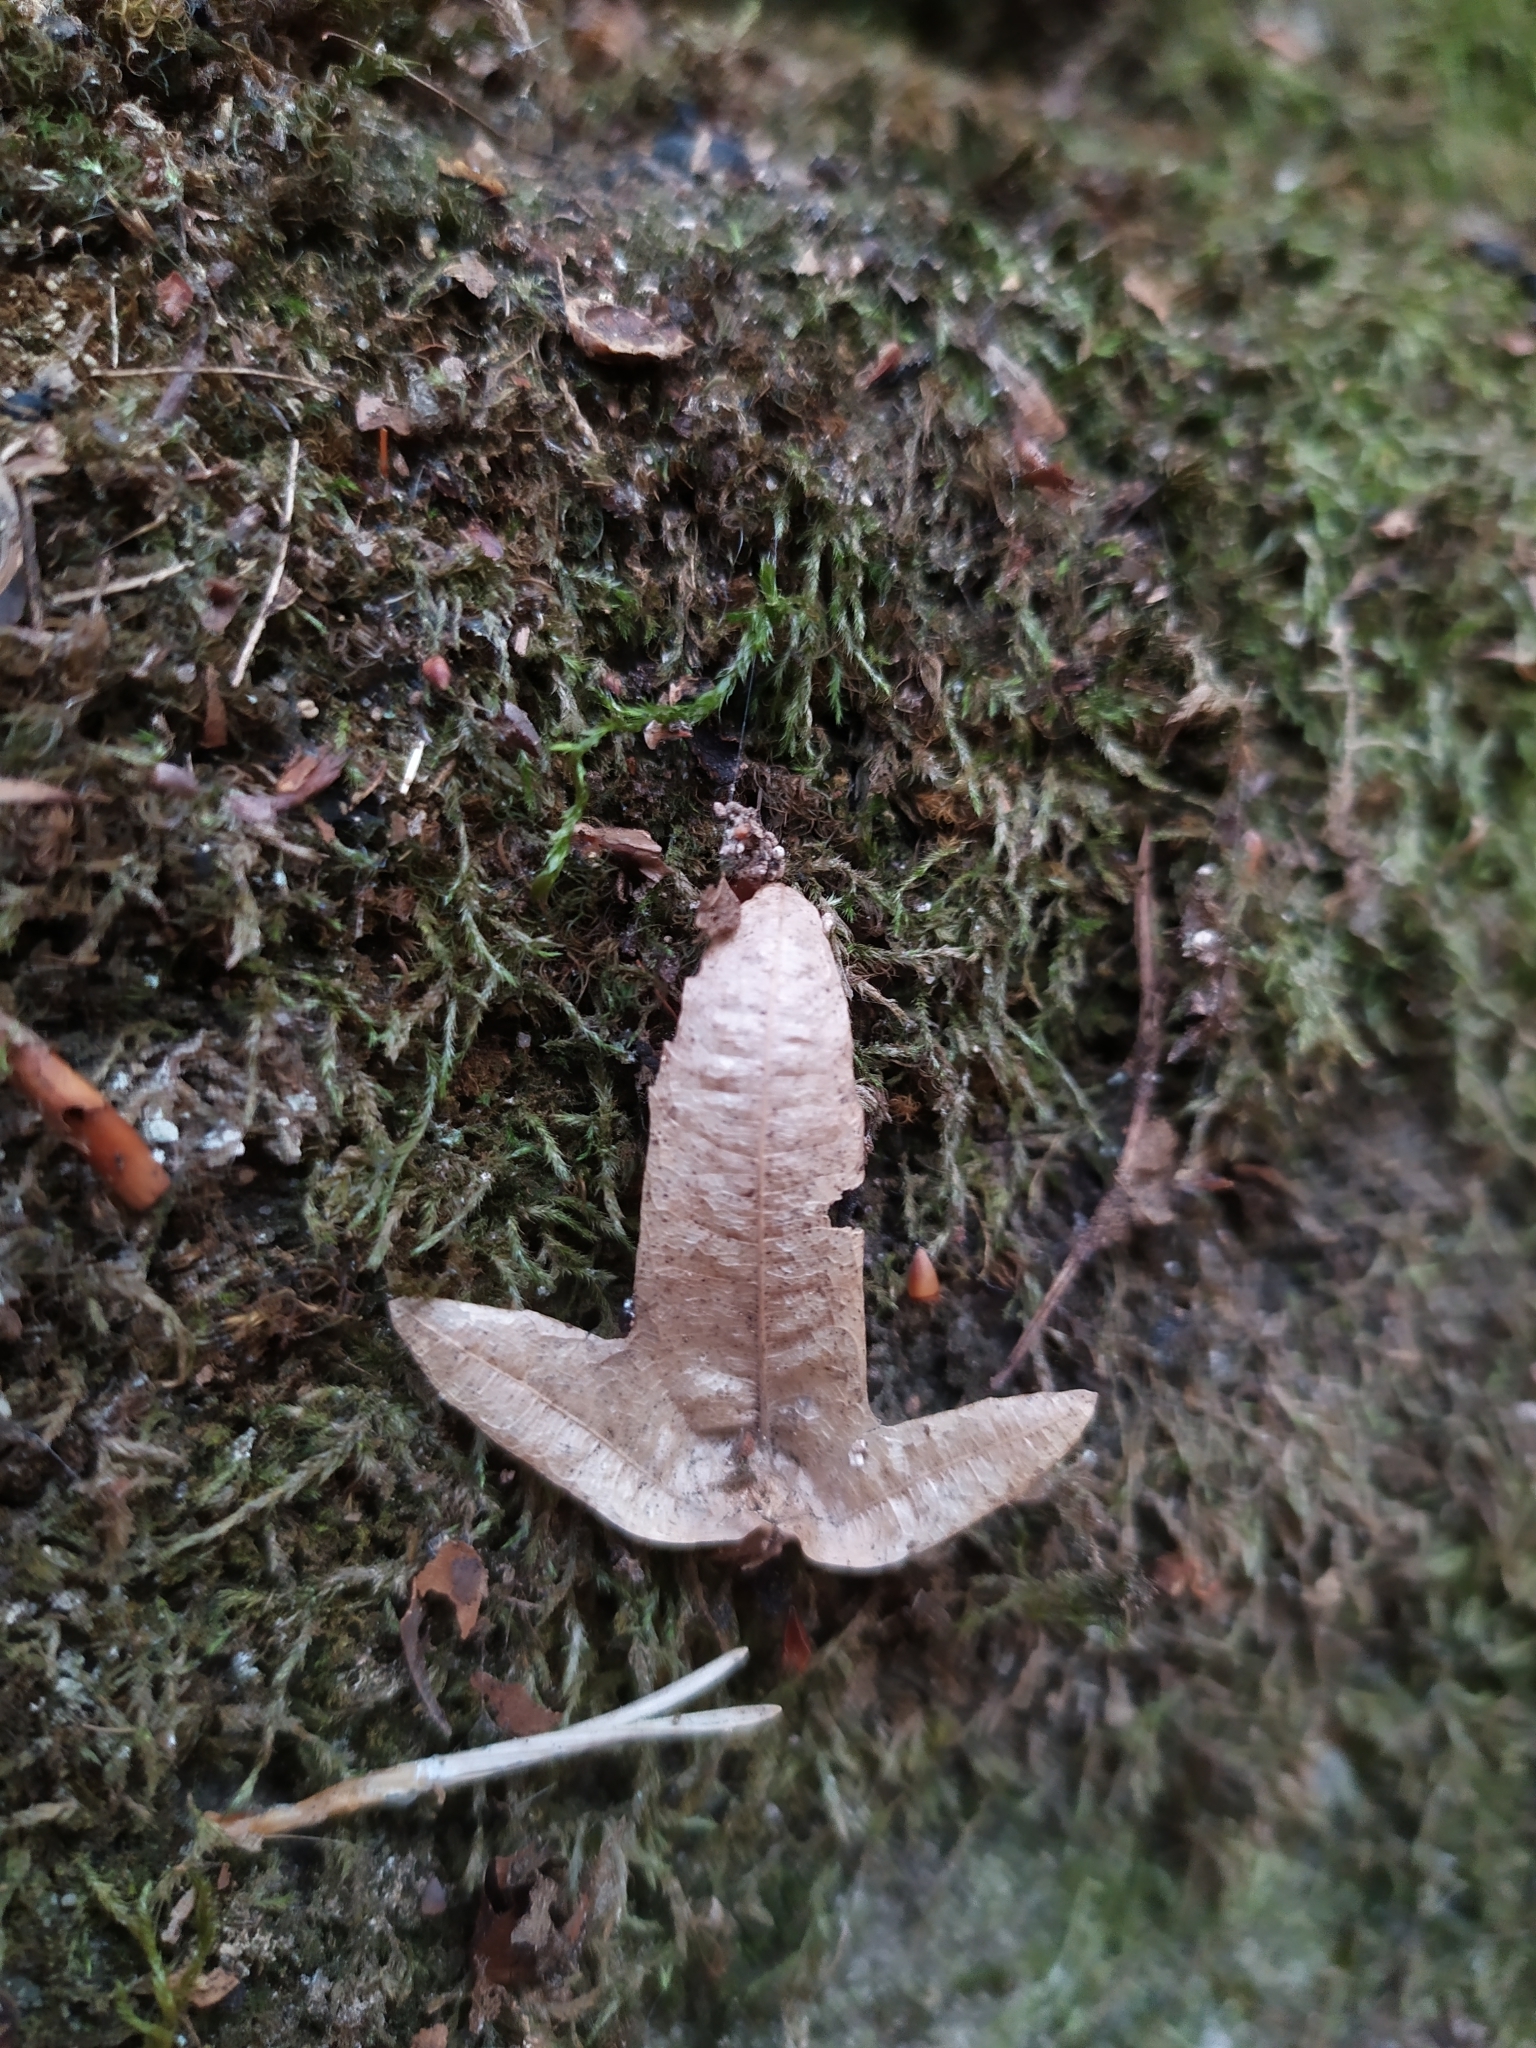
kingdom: Plantae
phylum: Tracheophyta
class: Magnoliopsida
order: Fagales
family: Betulaceae
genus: Carpinus
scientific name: Carpinus betulus
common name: Hornbeam
